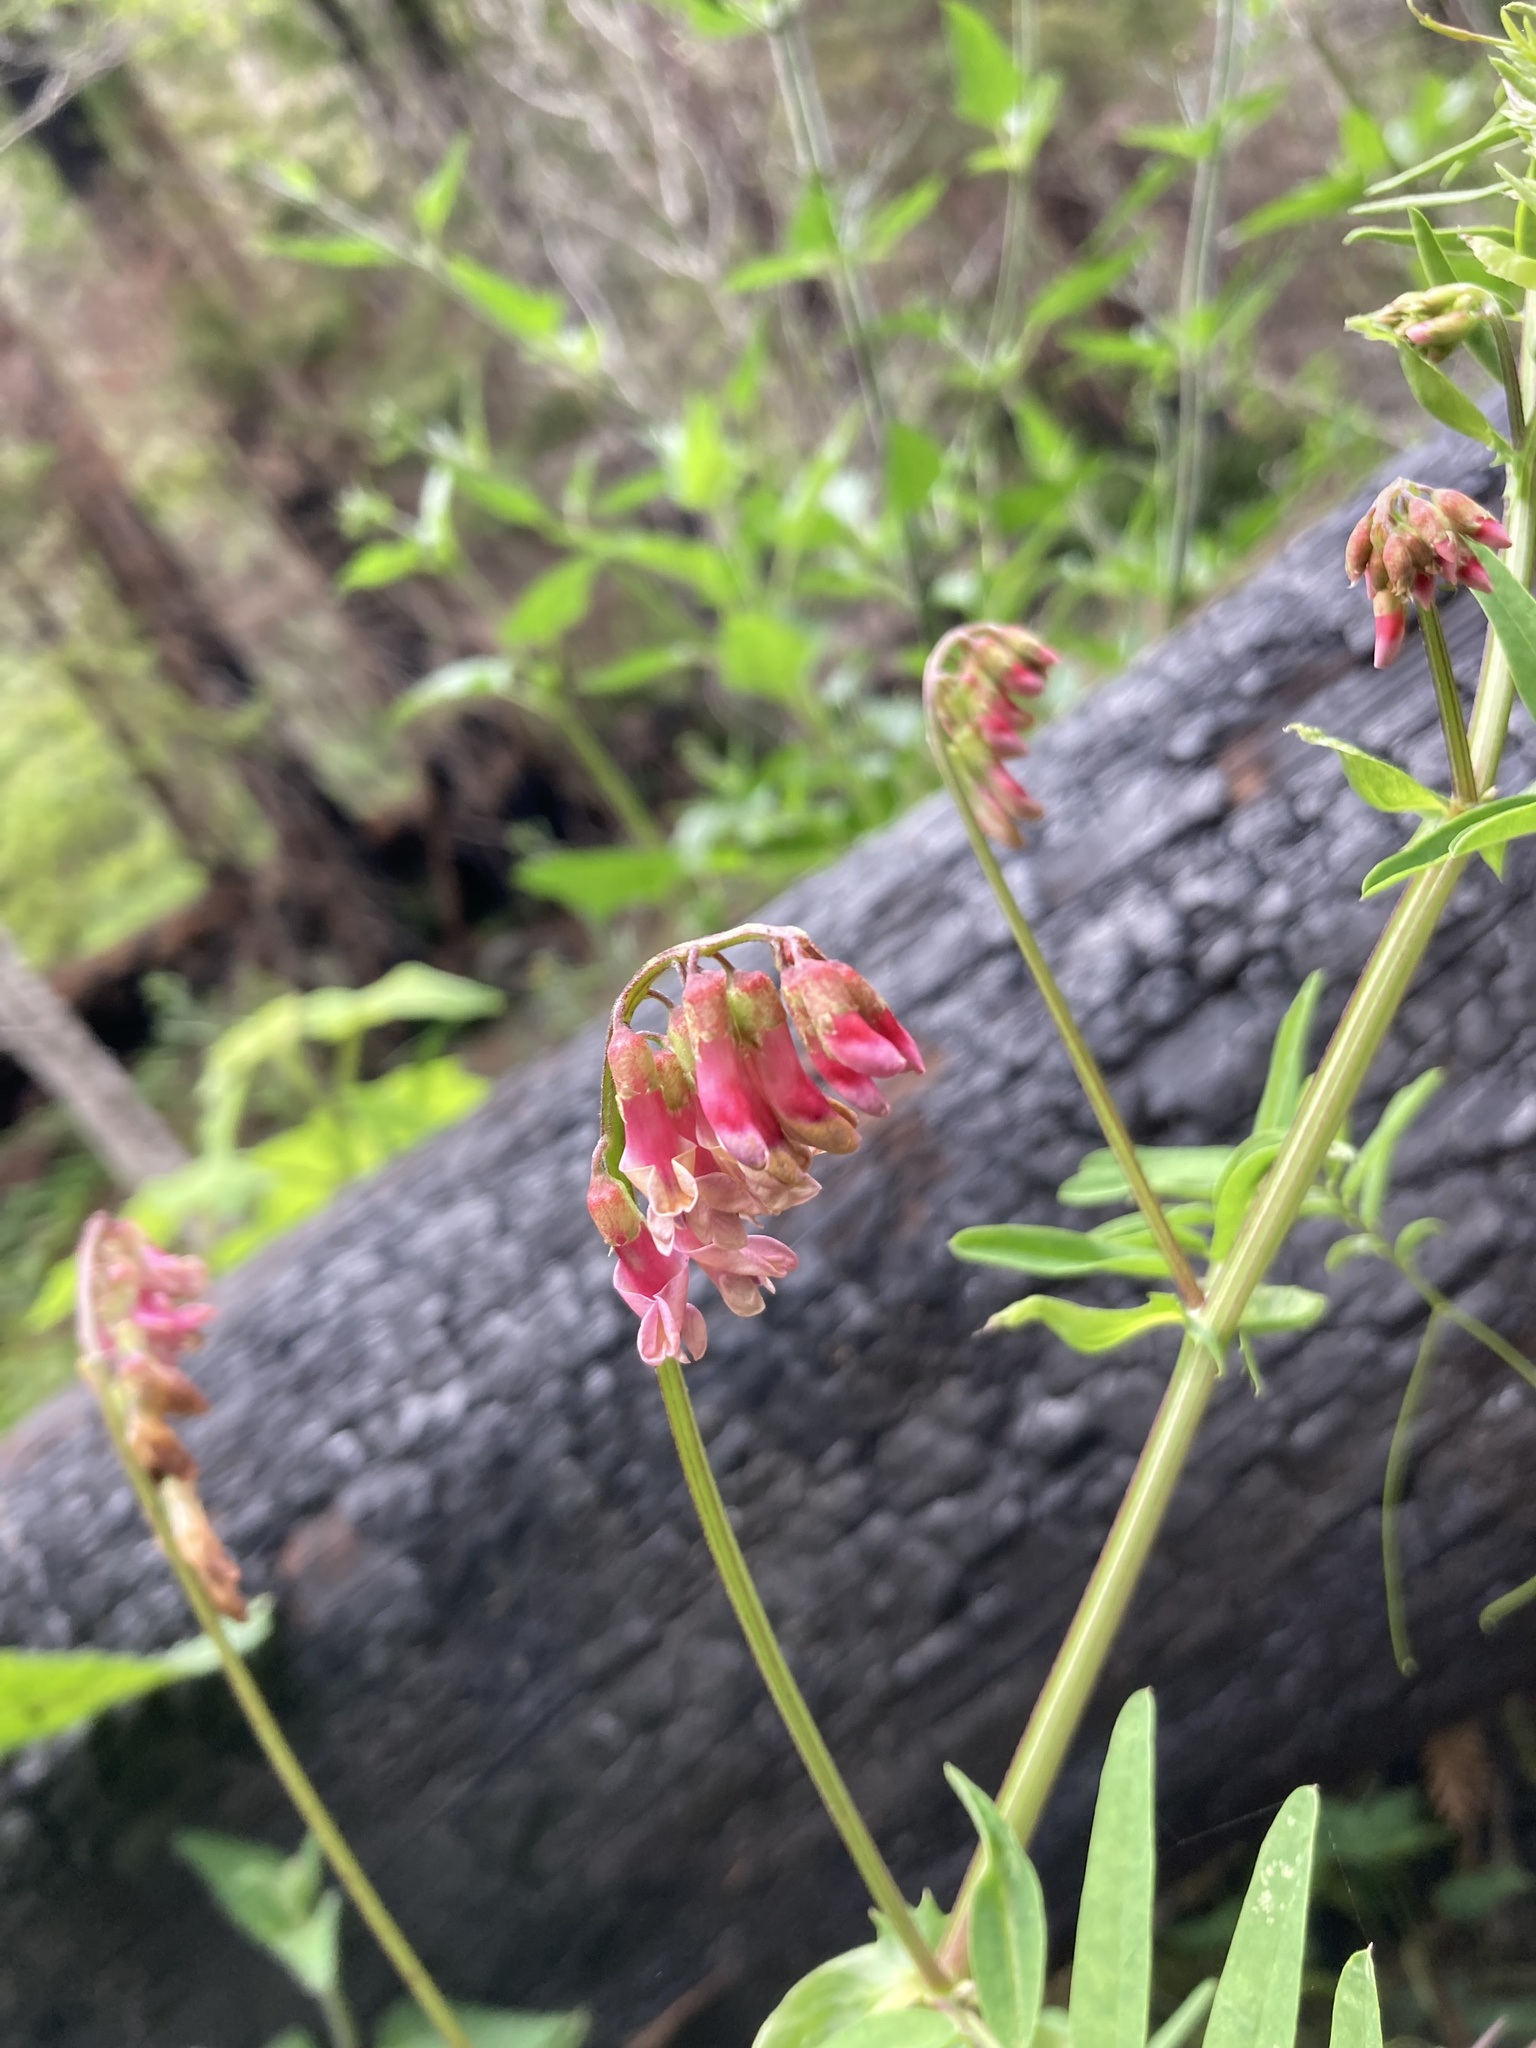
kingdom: Plantae
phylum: Tracheophyta
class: Magnoliopsida
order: Fabales
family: Fabaceae
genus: Vicia
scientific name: Vicia
